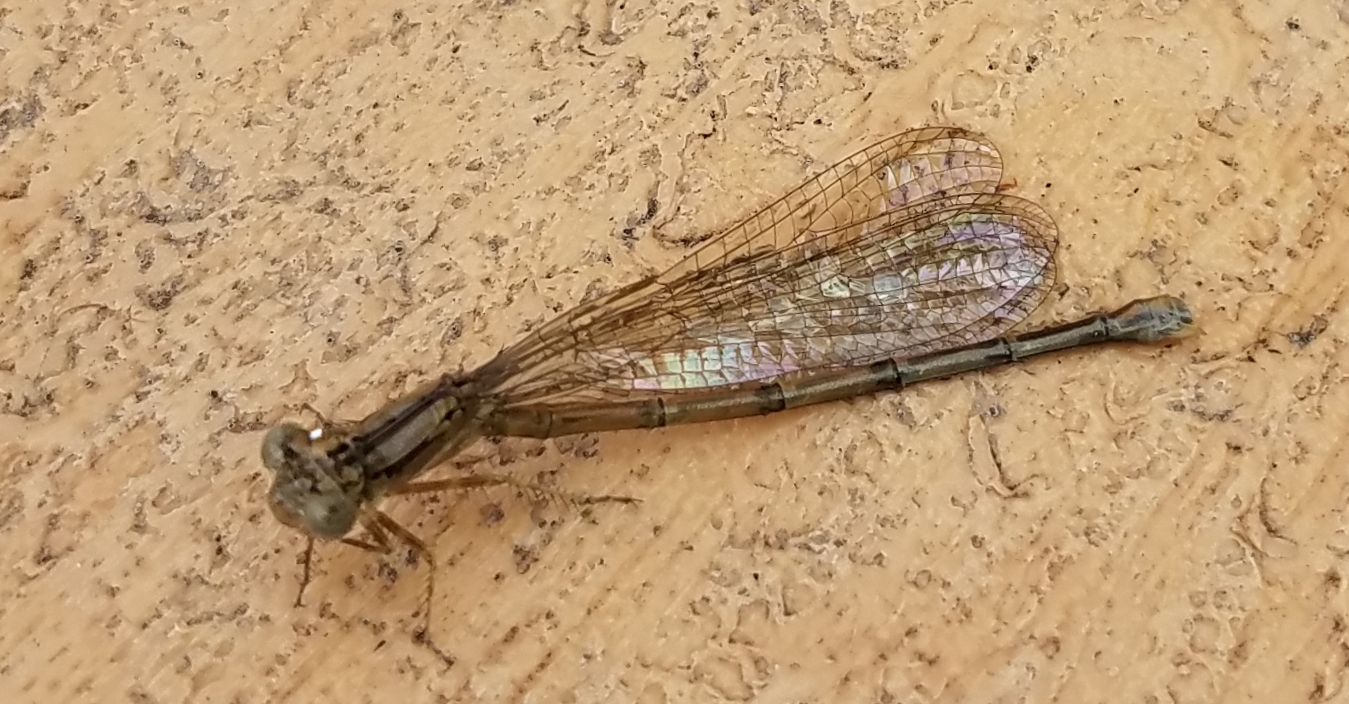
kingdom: Animalia
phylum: Arthropoda
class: Insecta
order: Odonata
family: Coenagrionidae
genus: Argia
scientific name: Argia fumipennis
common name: Variable dancer
